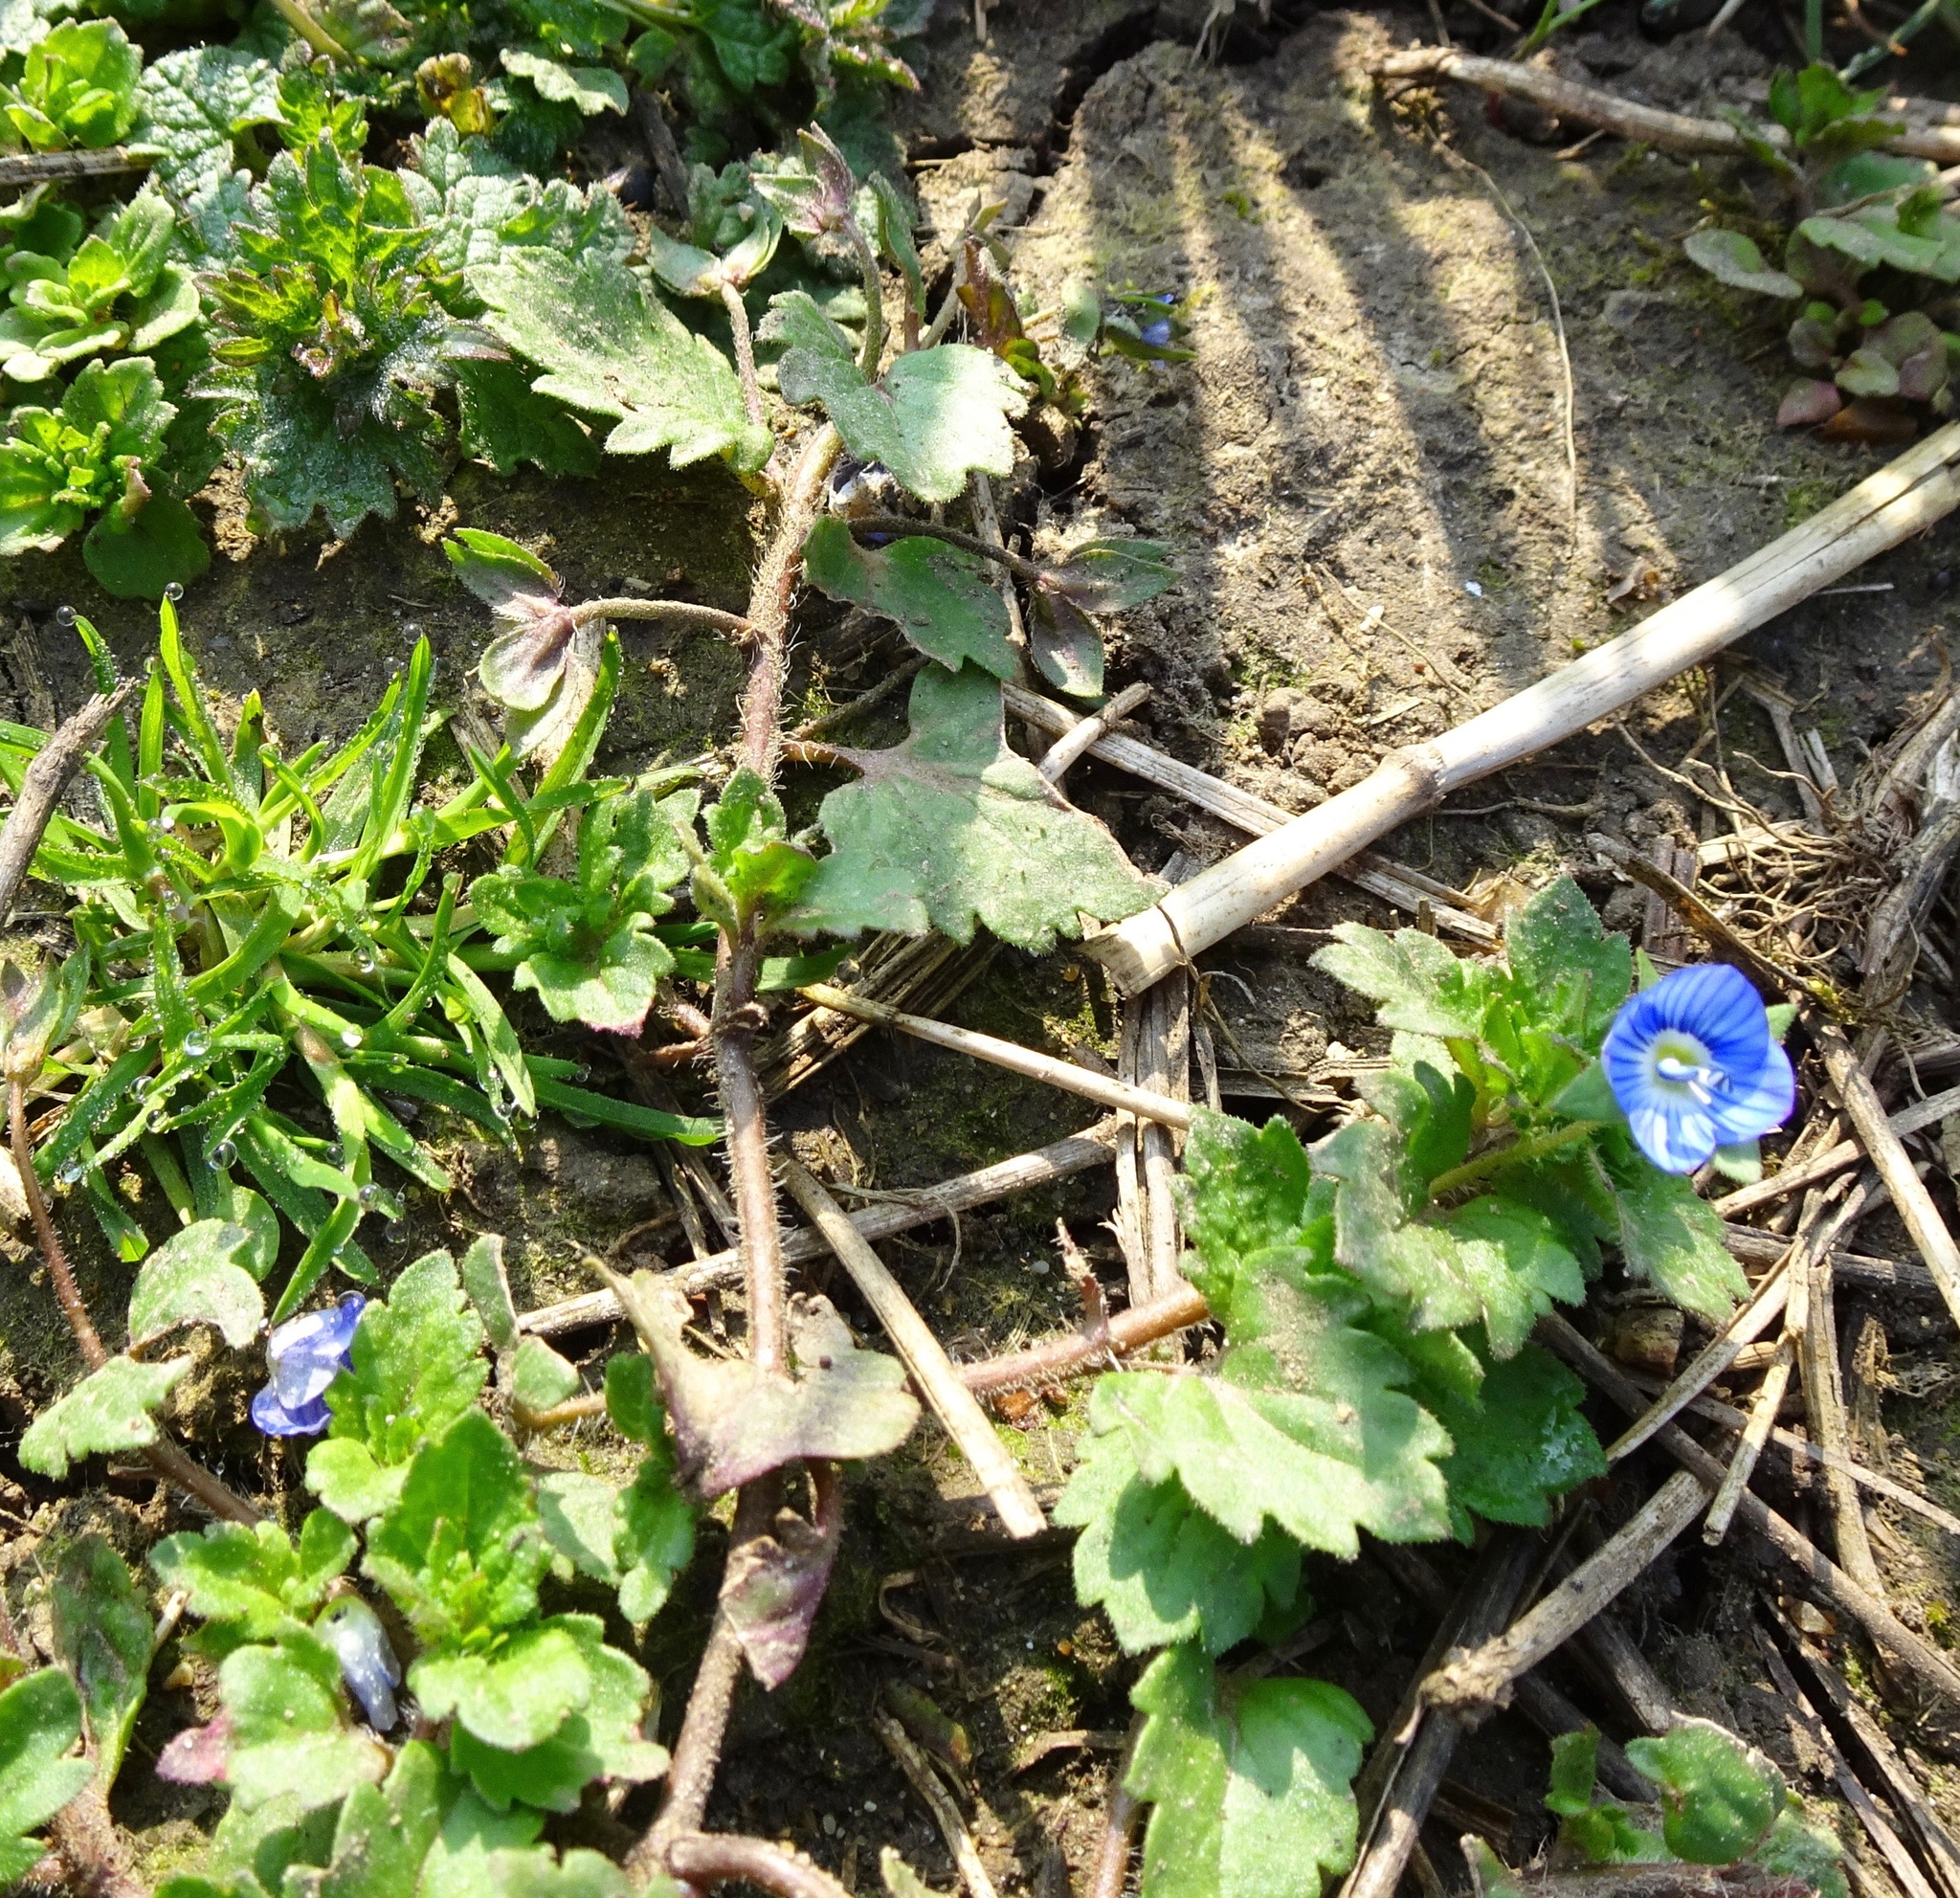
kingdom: Plantae
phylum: Tracheophyta
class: Magnoliopsida
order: Lamiales
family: Plantaginaceae
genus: Veronica
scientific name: Veronica persica
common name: Common field-speedwell
